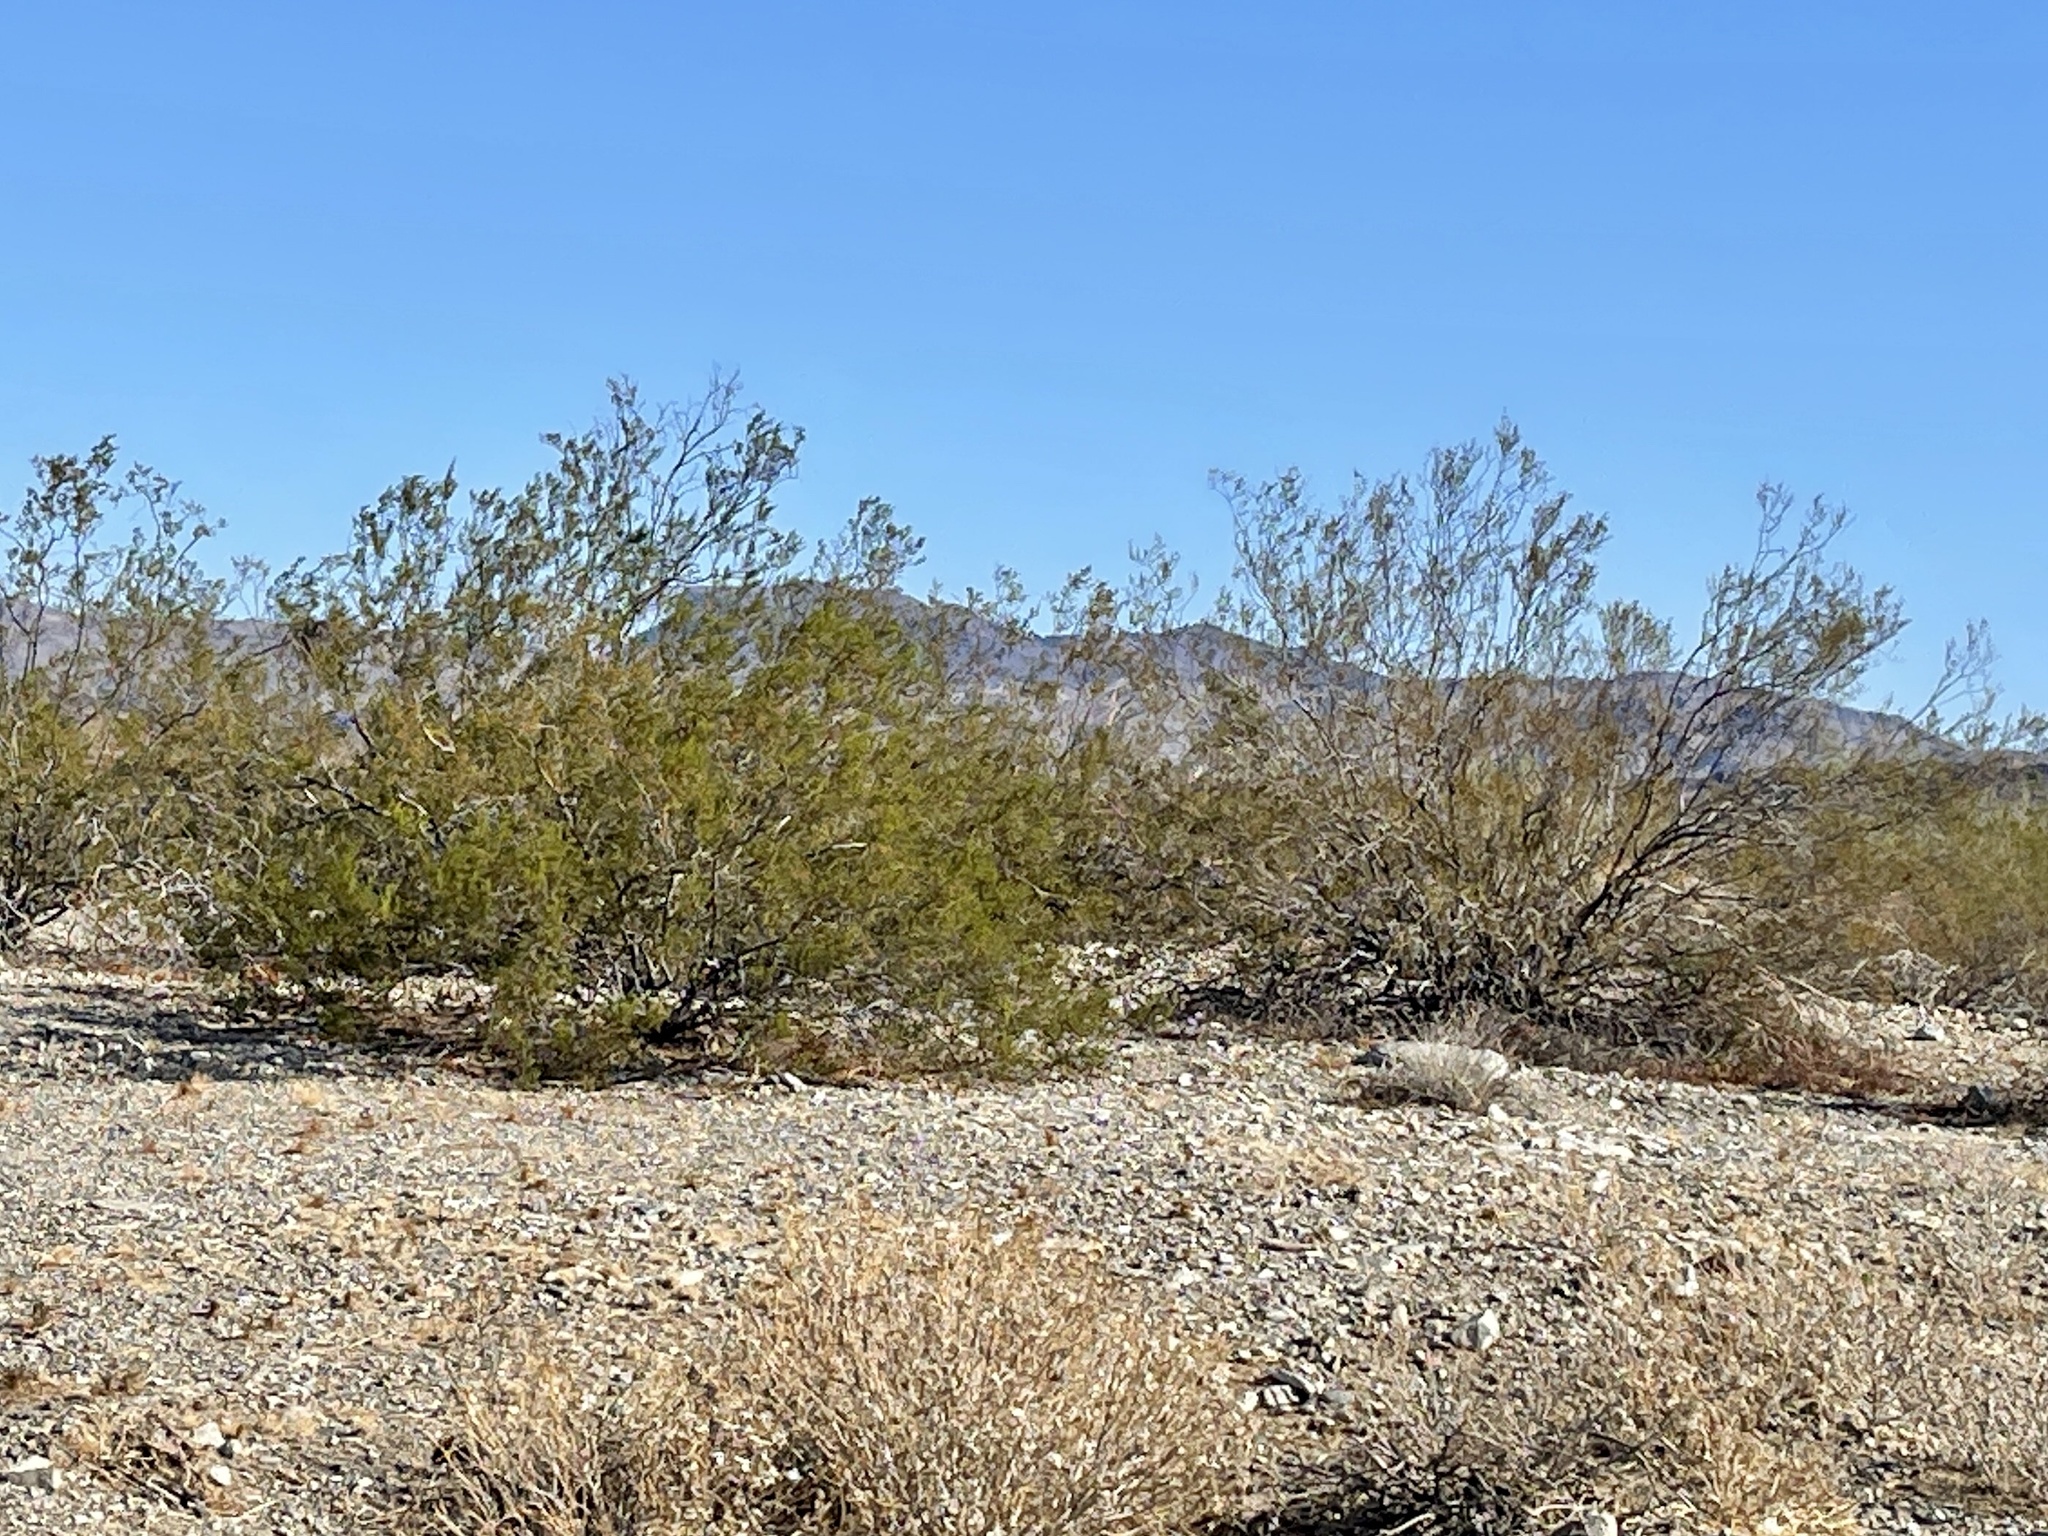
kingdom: Plantae
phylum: Tracheophyta
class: Magnoliopsida
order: Zygophyllales
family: Zygophyllaceae
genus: Larrea
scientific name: Larrea tridentata
